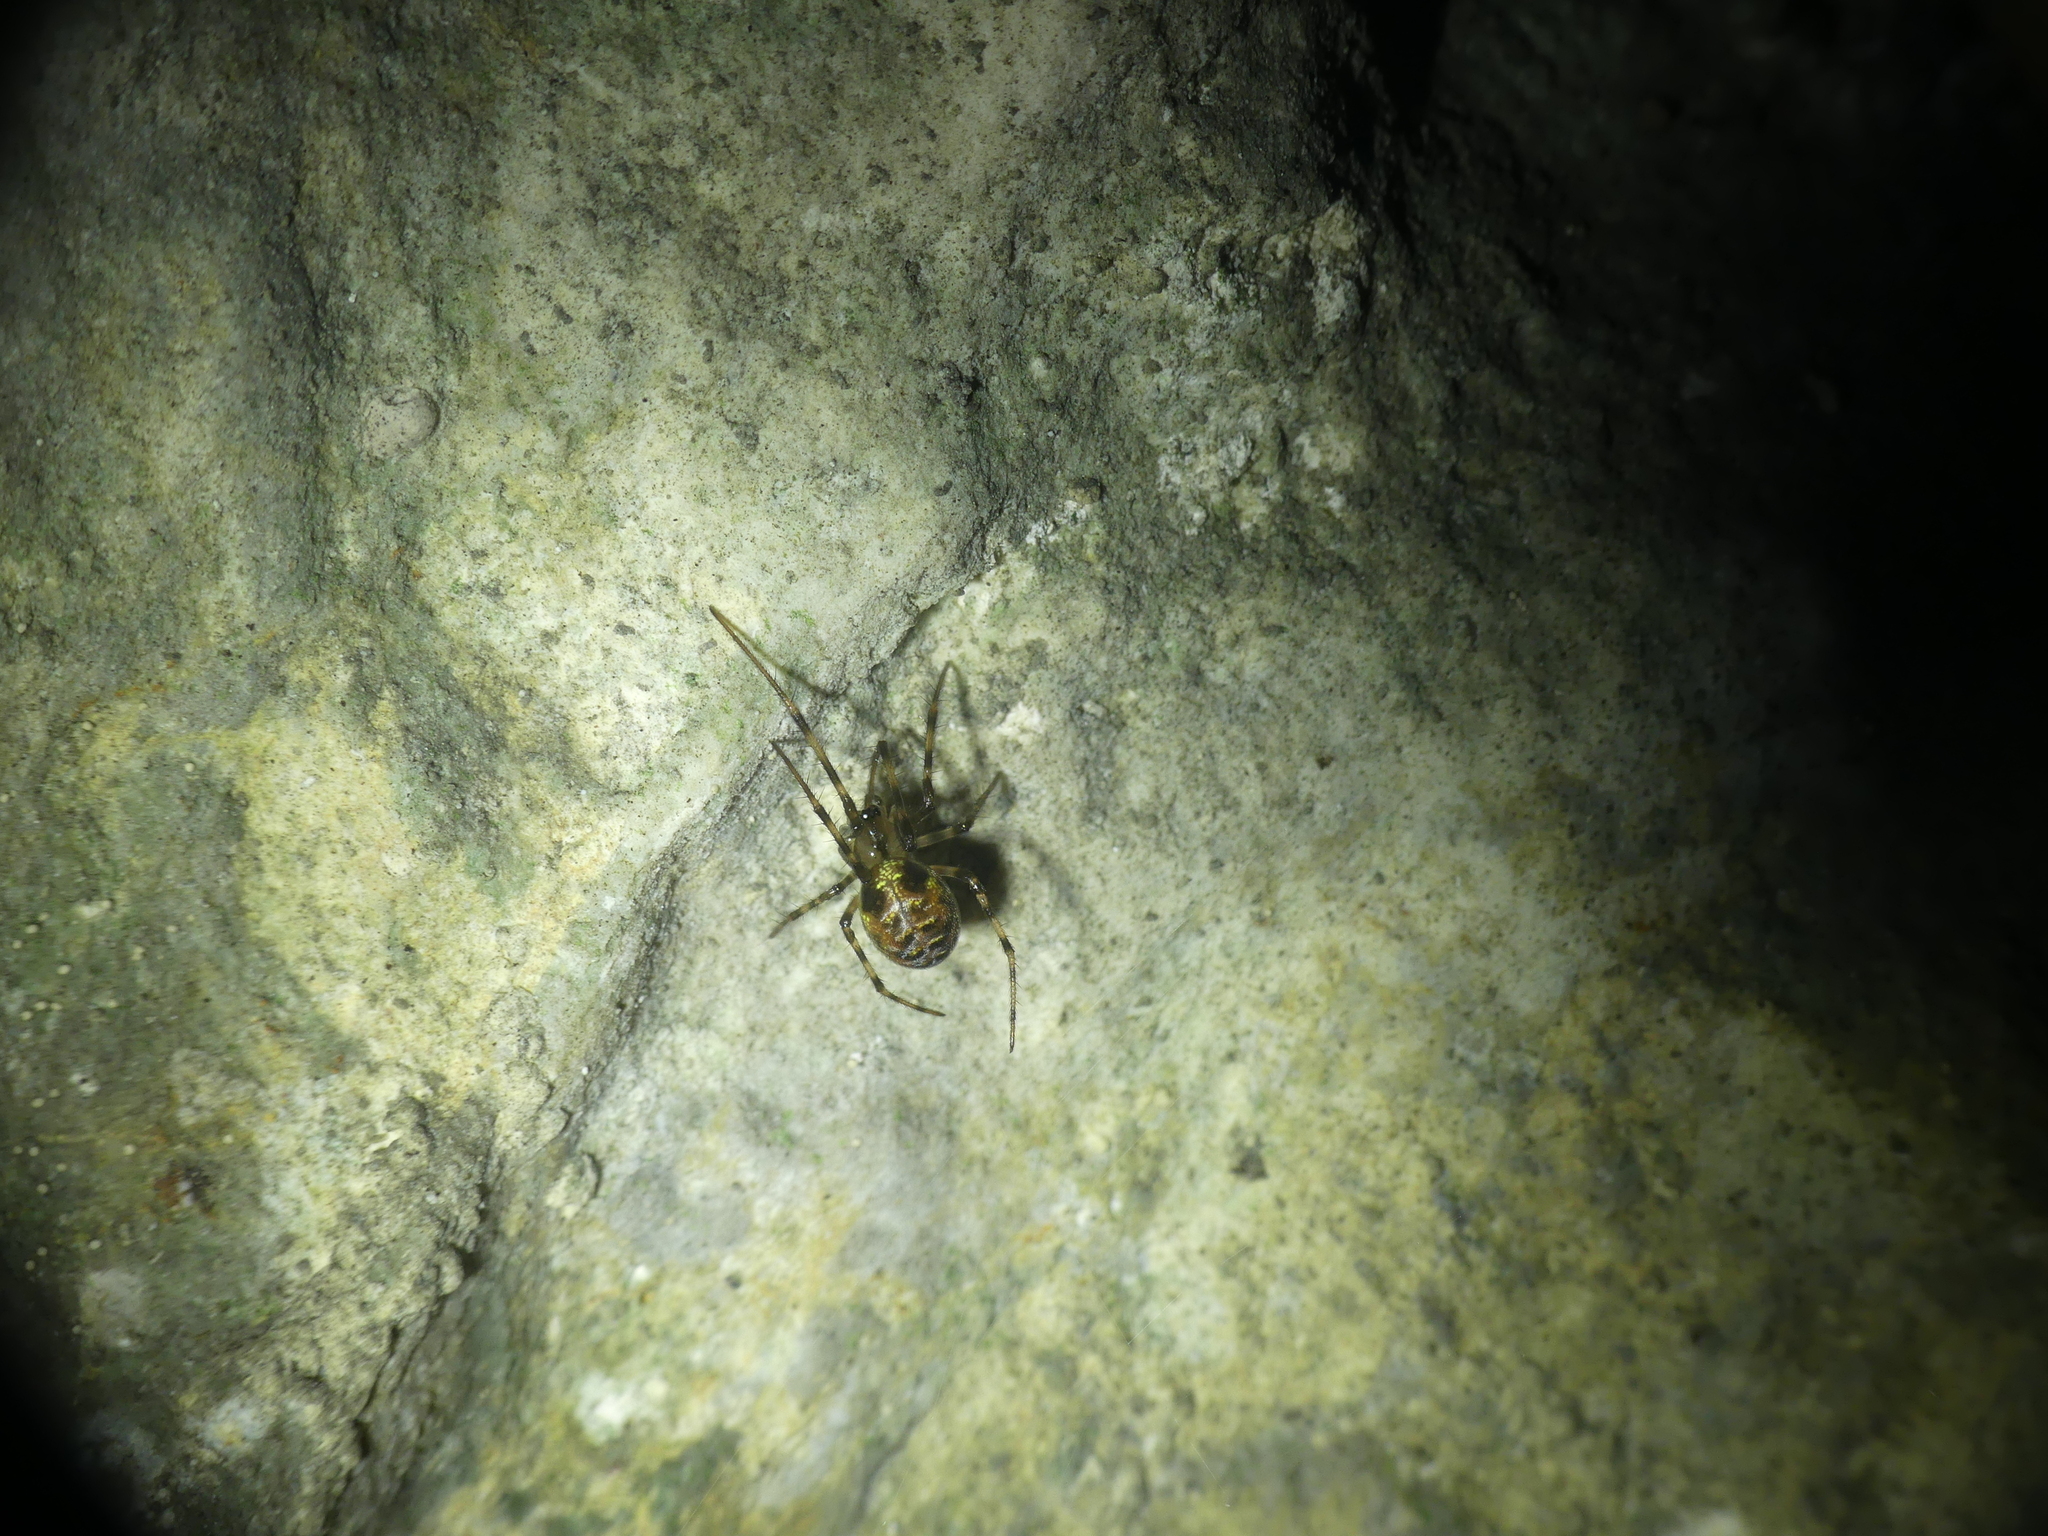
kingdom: Animalia
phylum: Arthropoda
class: Arachnida
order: Araneae
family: Tetragnathidae
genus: Meta
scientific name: Meta menardi
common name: Cave spider
